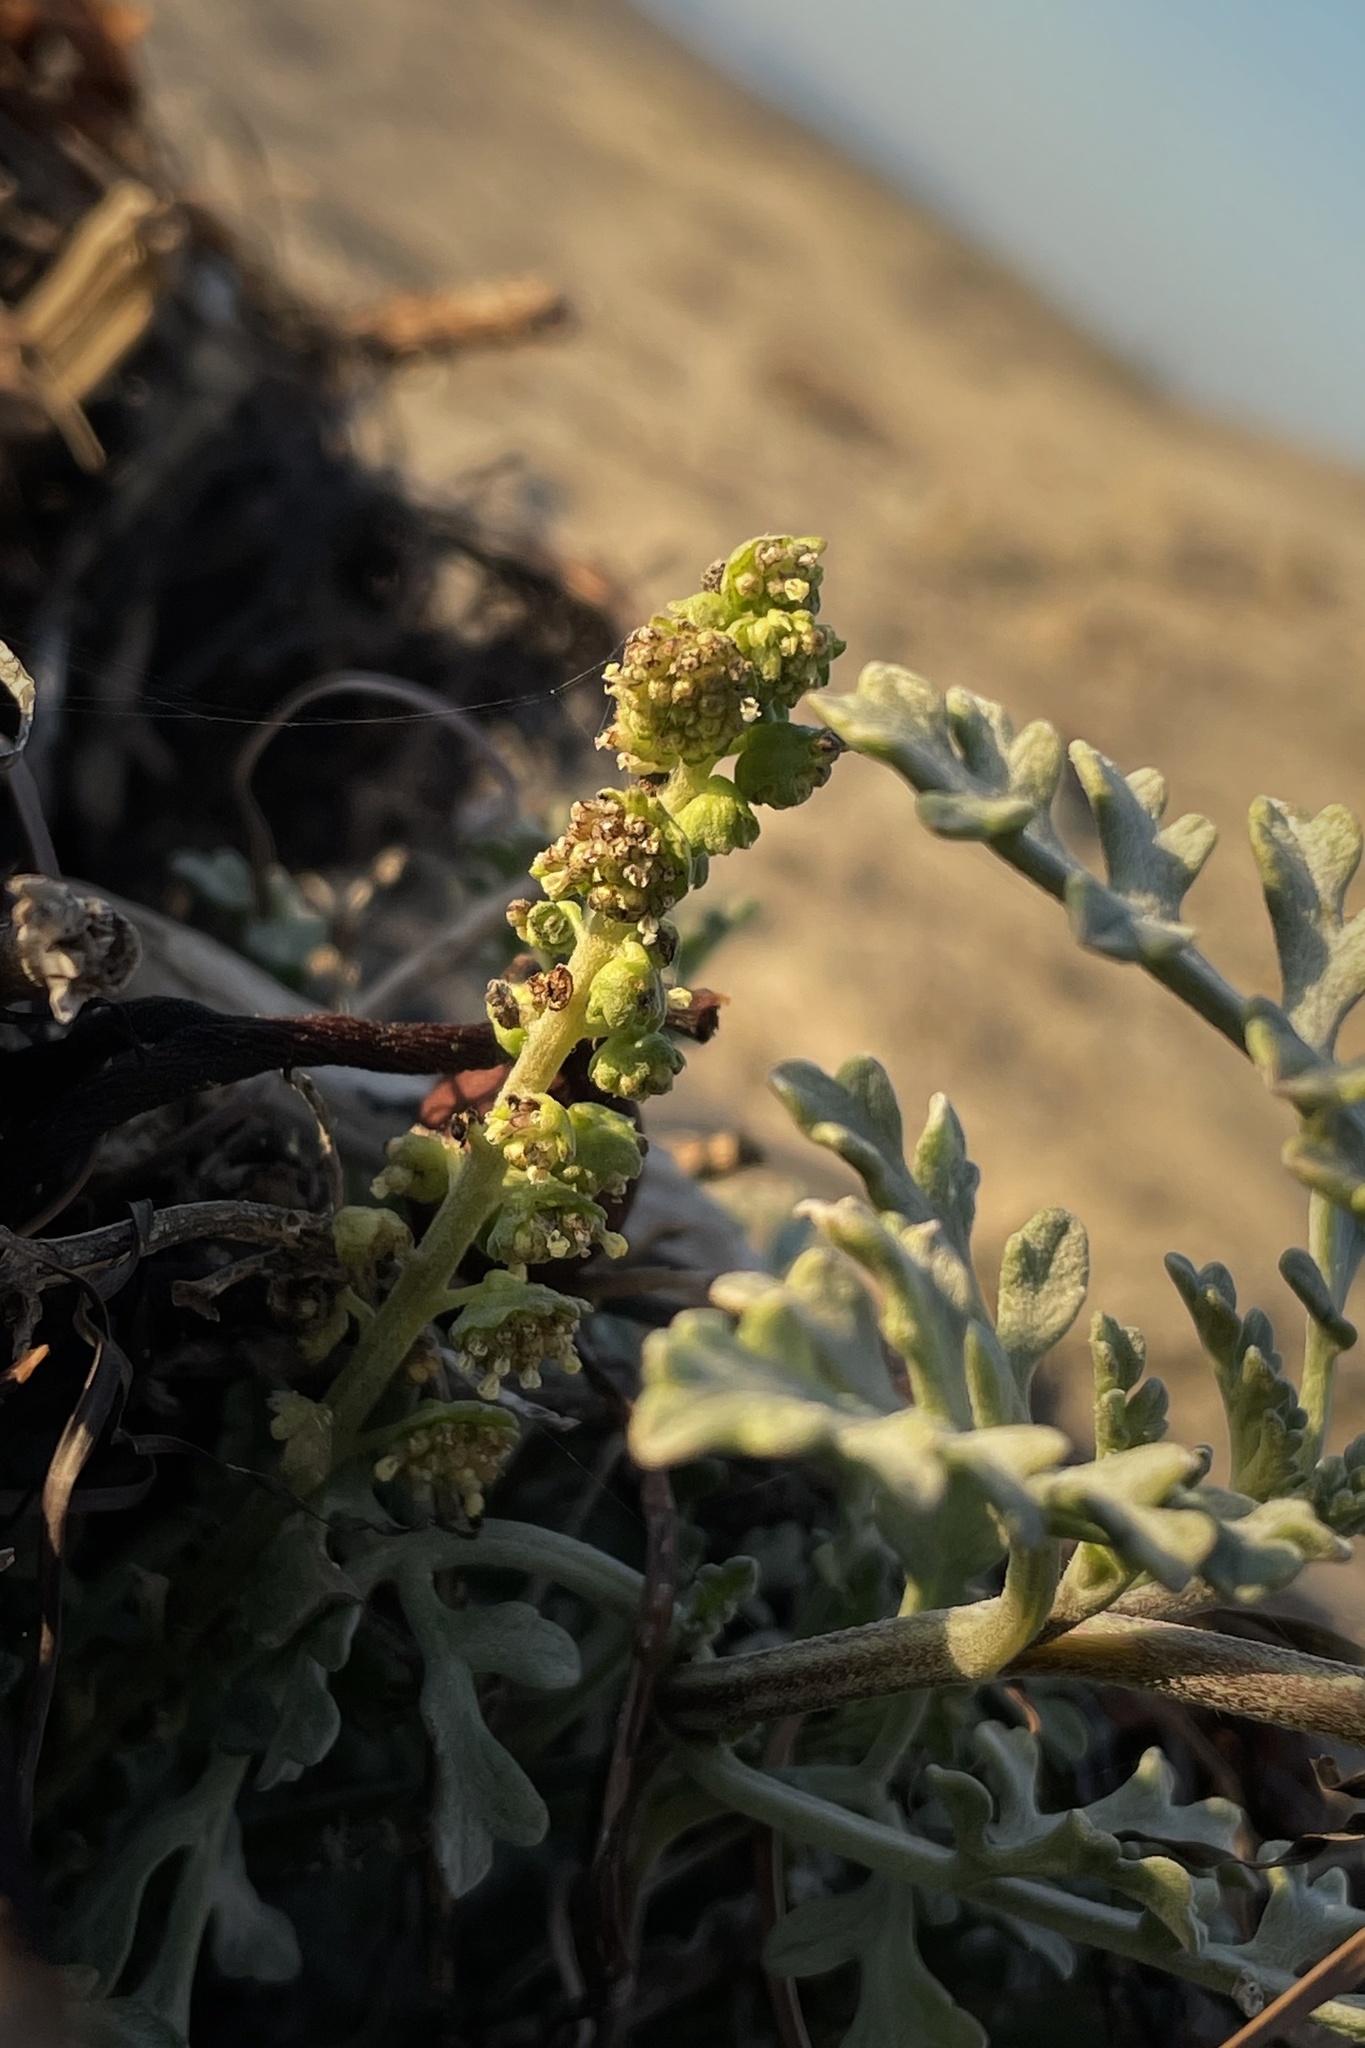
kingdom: Plantae
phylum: Tracheophyta
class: Magnoliopsida
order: Asterales
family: Asteraceae
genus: Ambrosia
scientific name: Ambrosia chamissonis
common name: Beachbur
